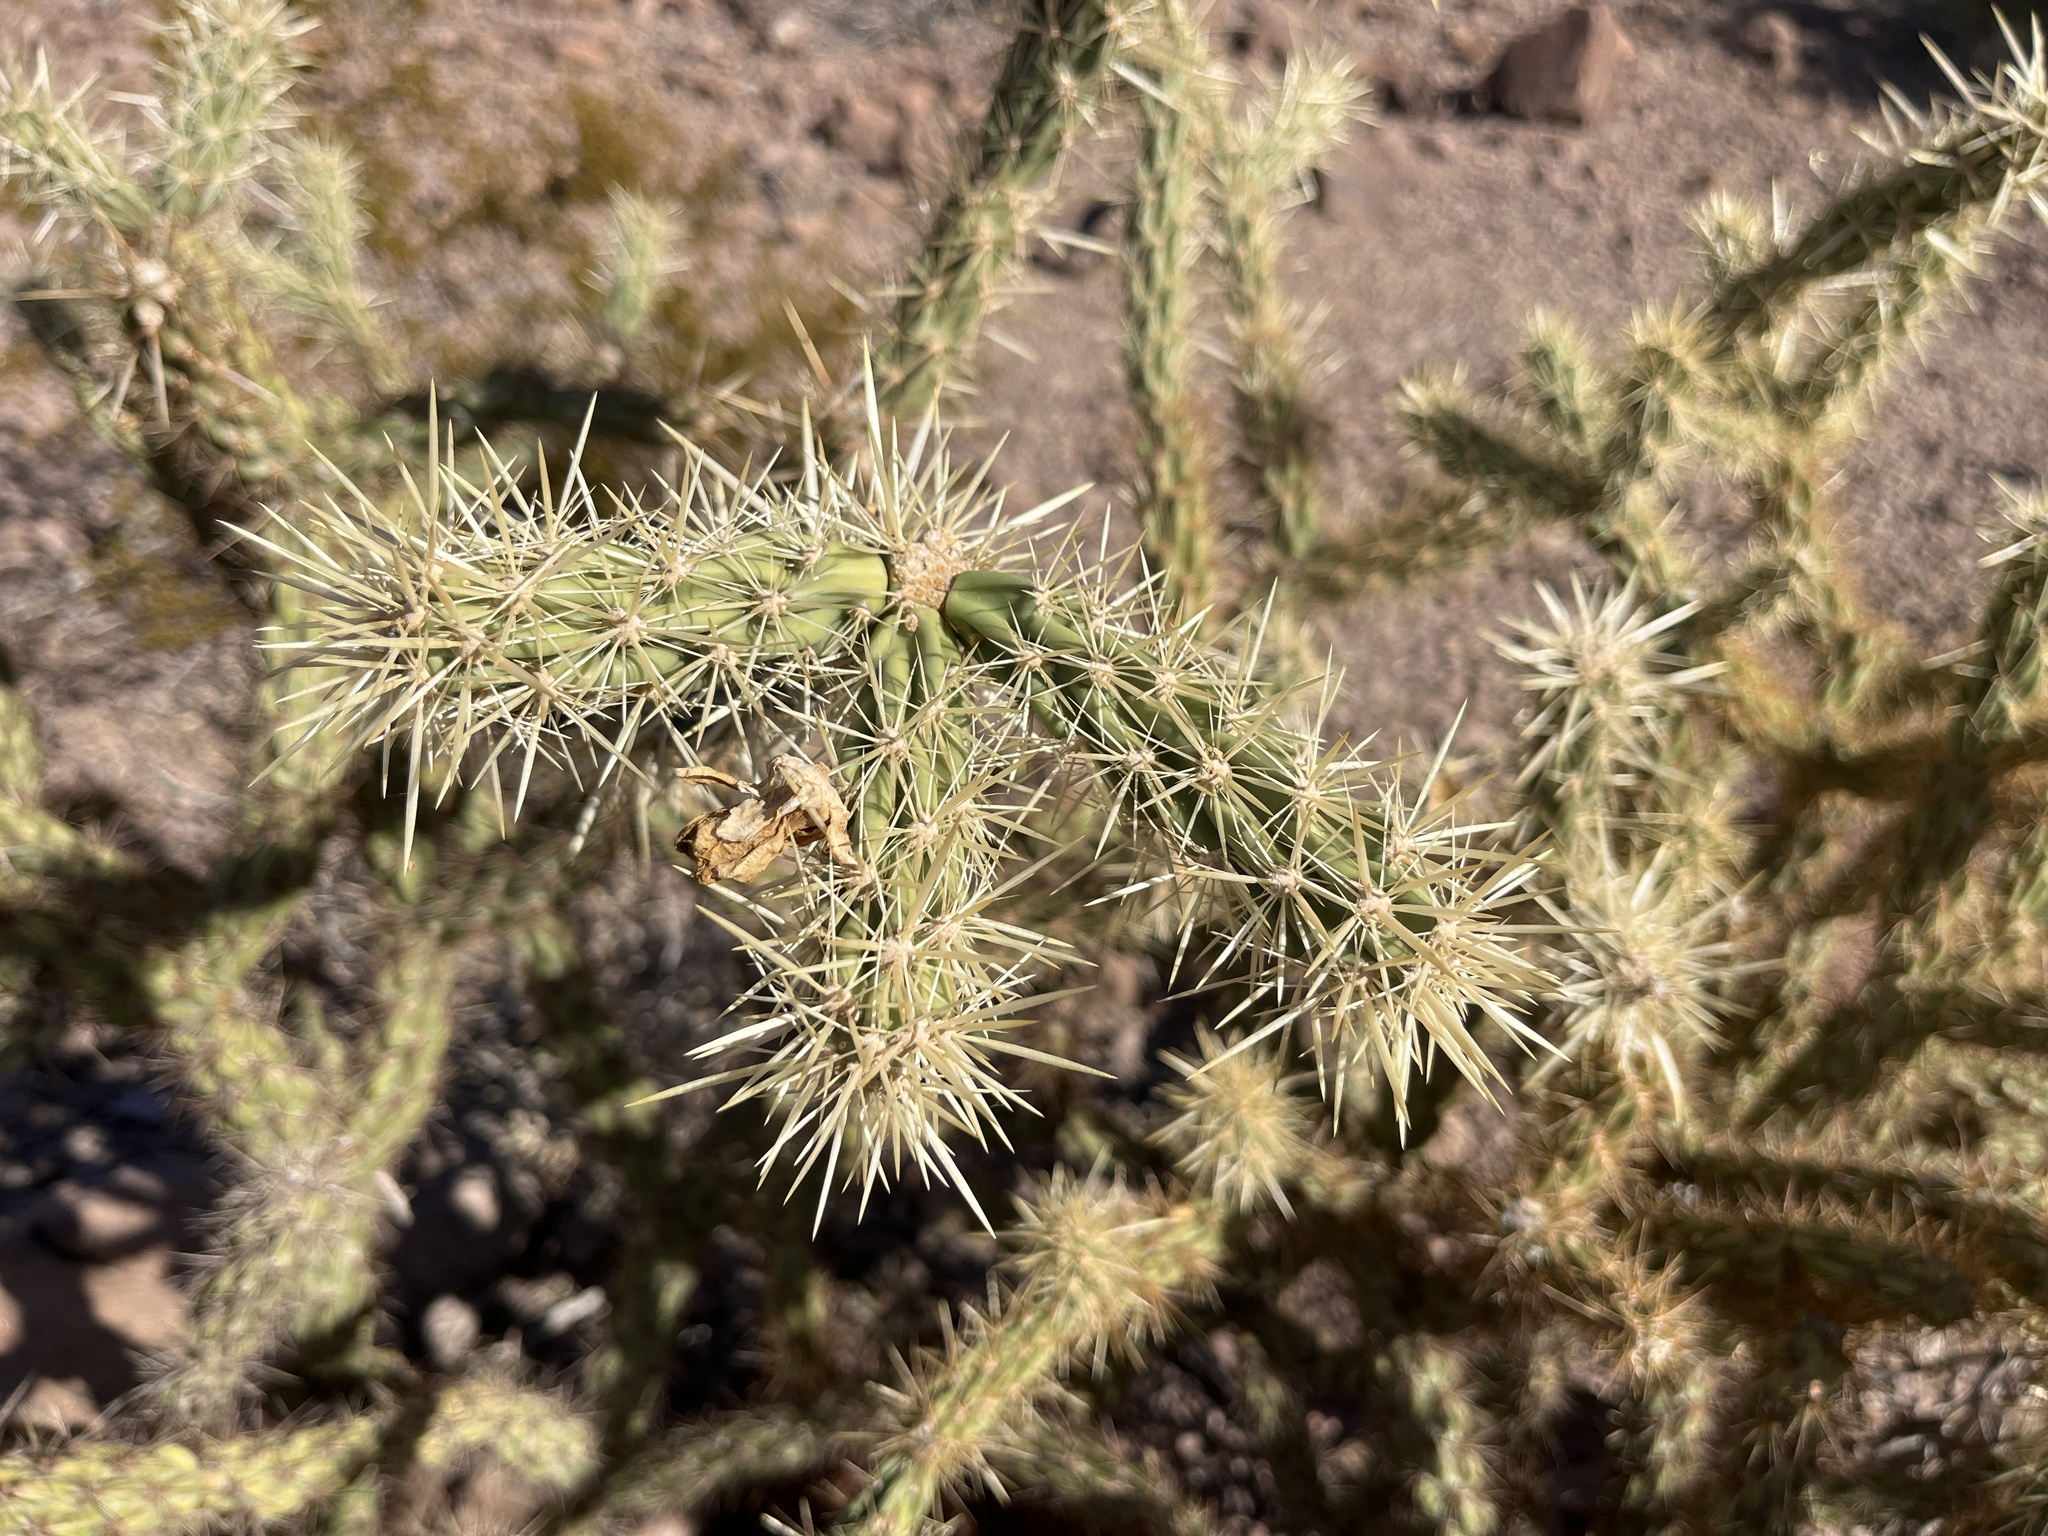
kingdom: Plantae
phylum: Tracheophyta
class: Magnoliopsida
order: Caryophyllales
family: Cactaceae
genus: Cylindropuntia
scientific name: Cylindropuntia acanthocarpa
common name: Buckhorn cholla
